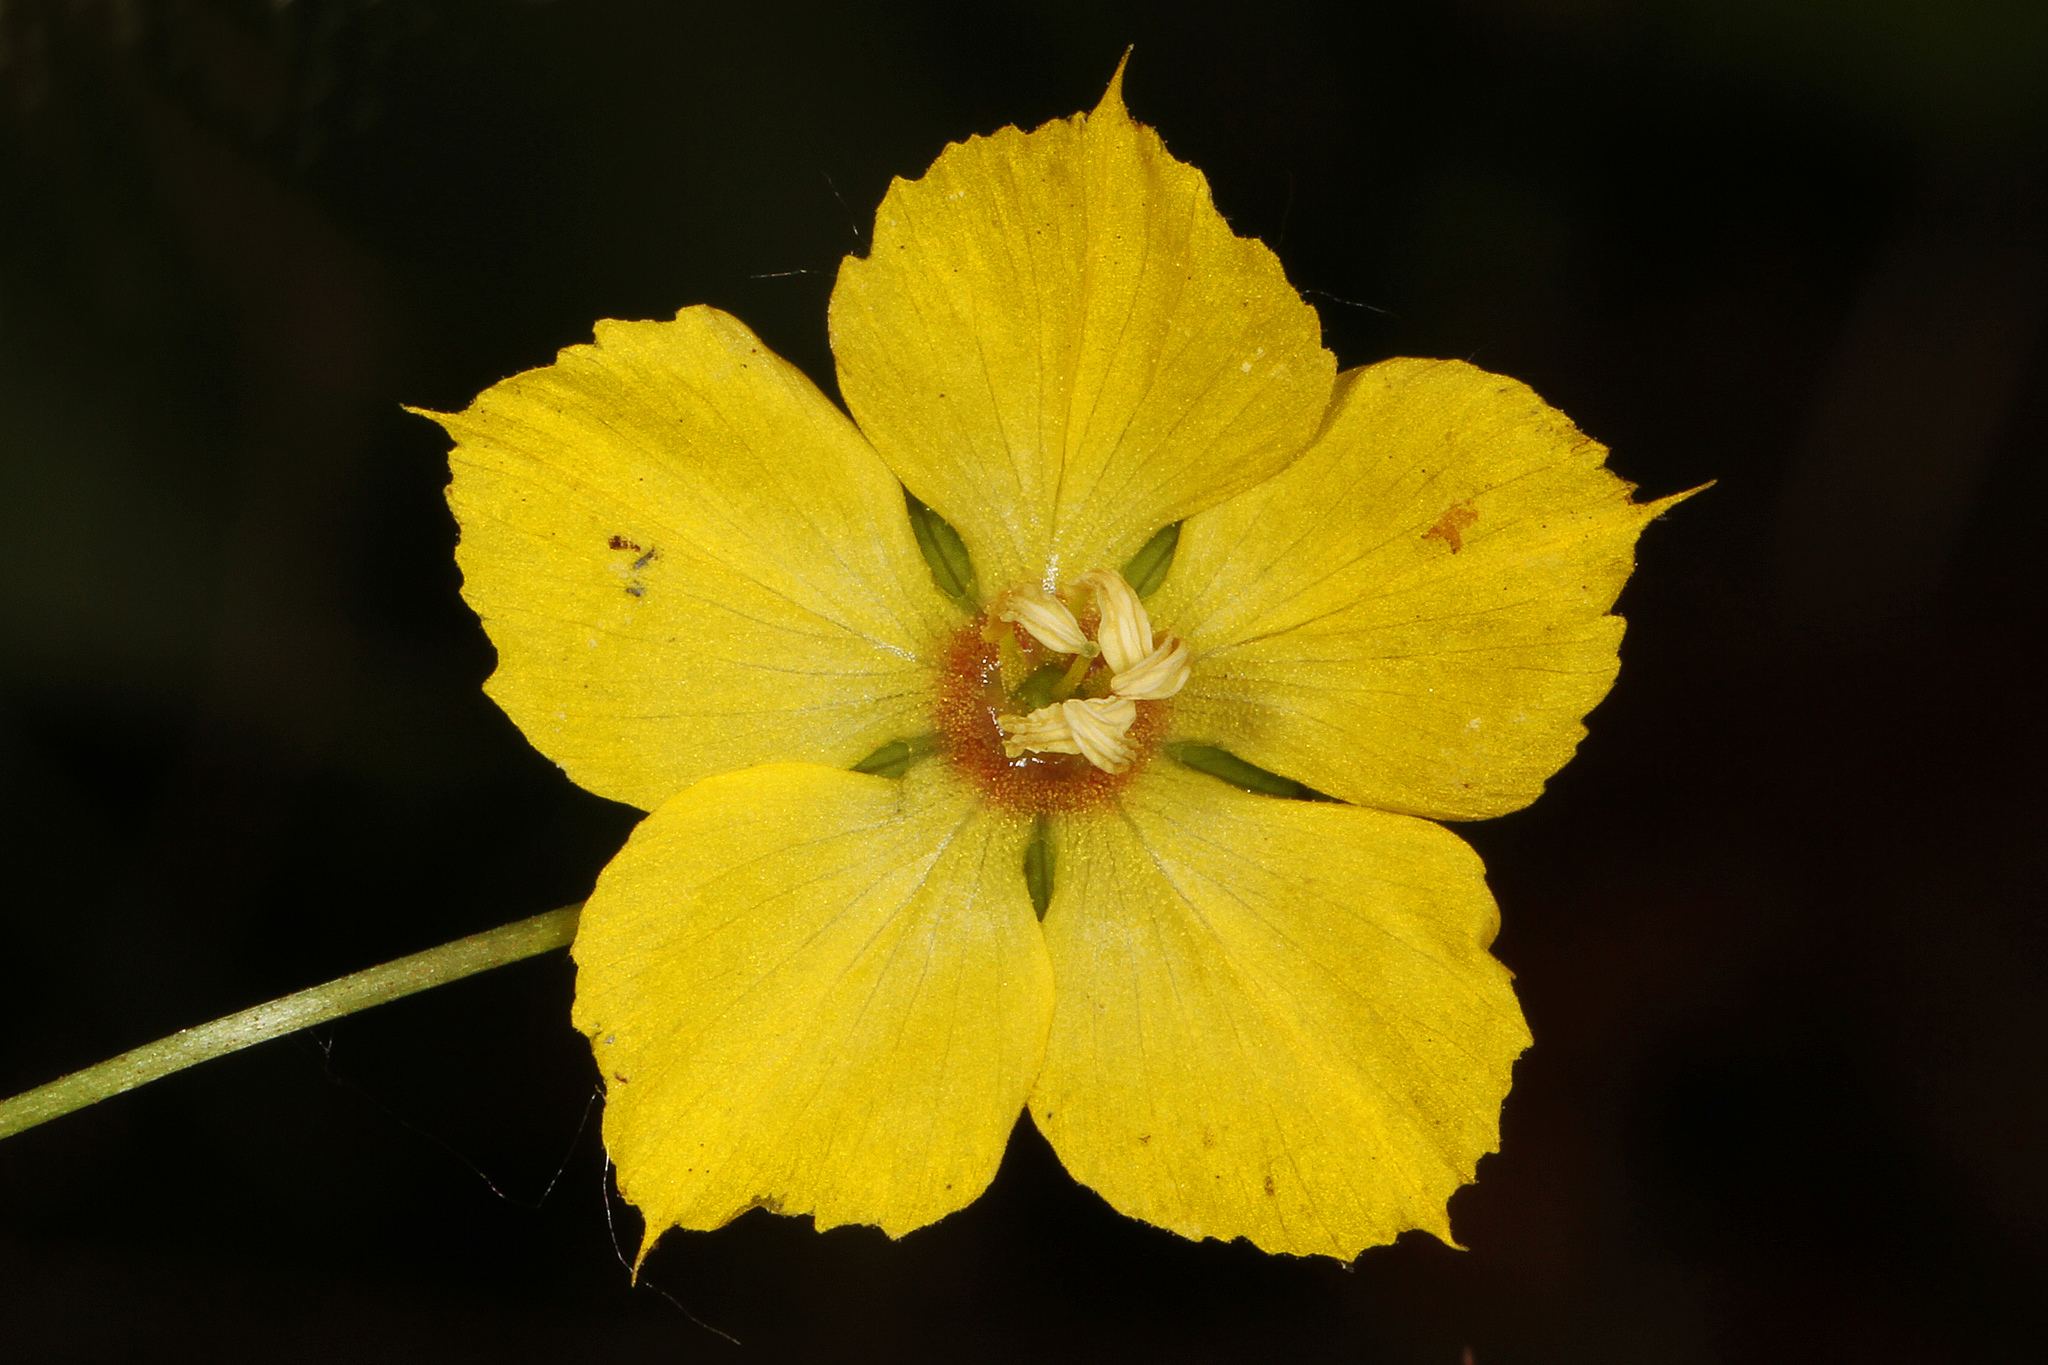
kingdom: Plantae
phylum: Tracheophyta
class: Magnoliopsida
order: Ericales
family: Primulaceae
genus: Lysimachia
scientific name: Lysimachia ciliata
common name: Fringed loosestrife
